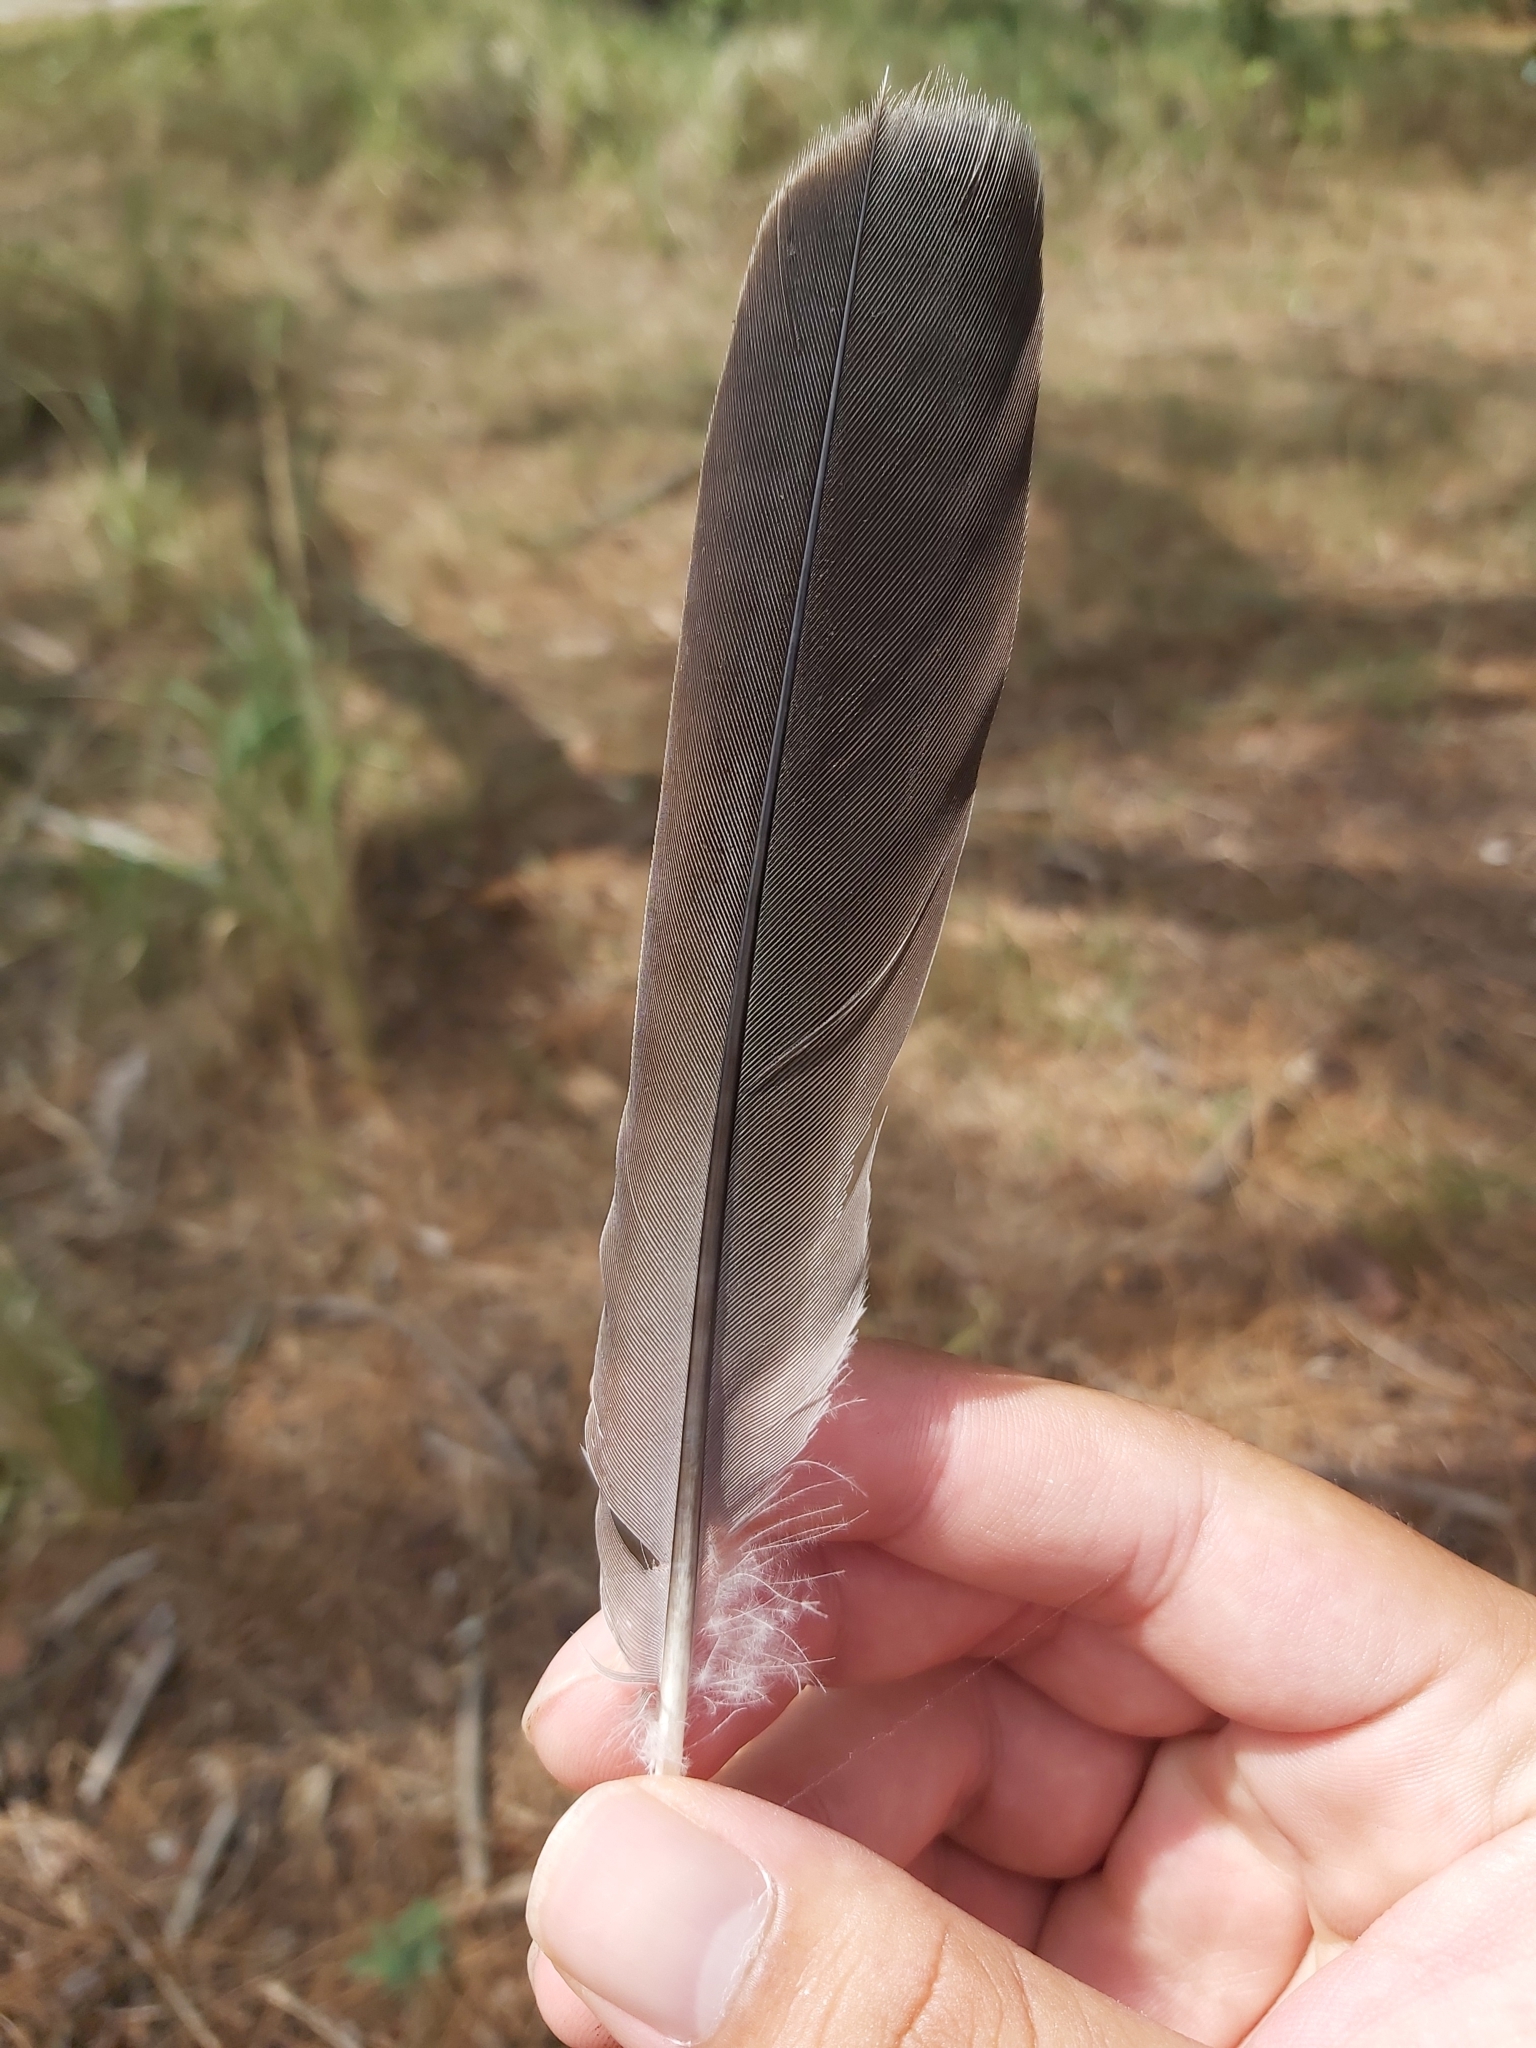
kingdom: Animalia
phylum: Chordata
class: Aves
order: Columbiformes
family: Columbidae
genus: Ocyphaps
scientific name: Ocyphaps lophotes
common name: Crested pigeon
